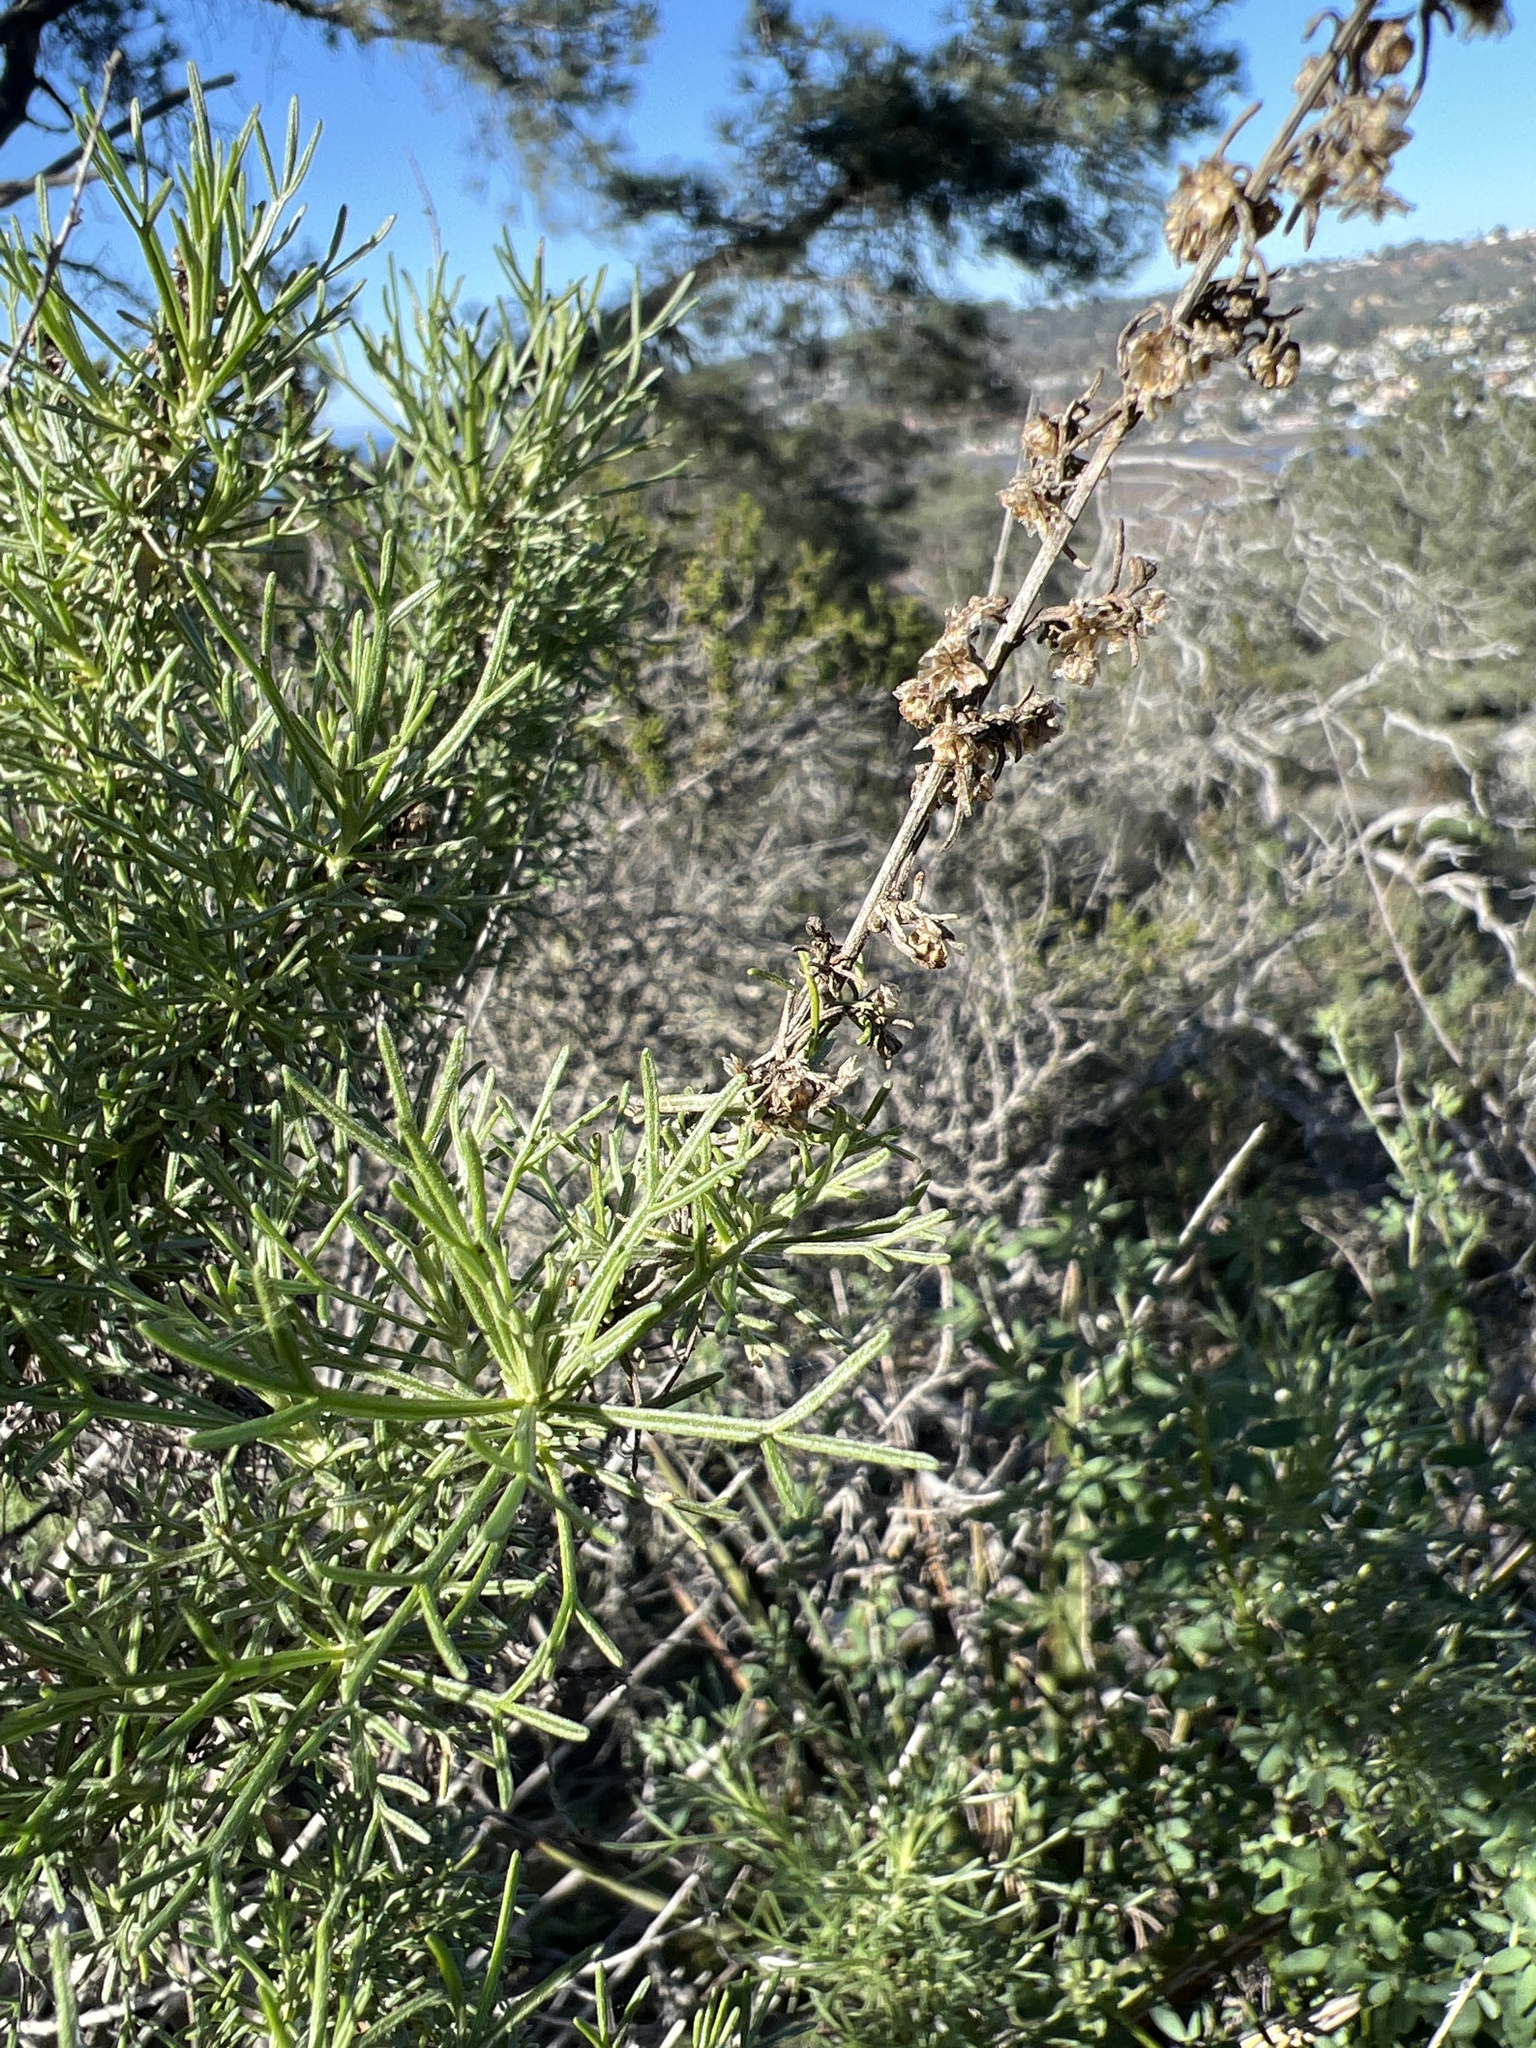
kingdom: Plantae
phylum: Tracheophyta
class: Magnoliopsida
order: Asterales
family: Asteraceae
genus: Artemisia
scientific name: Artemisia californica
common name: California sagebrush
